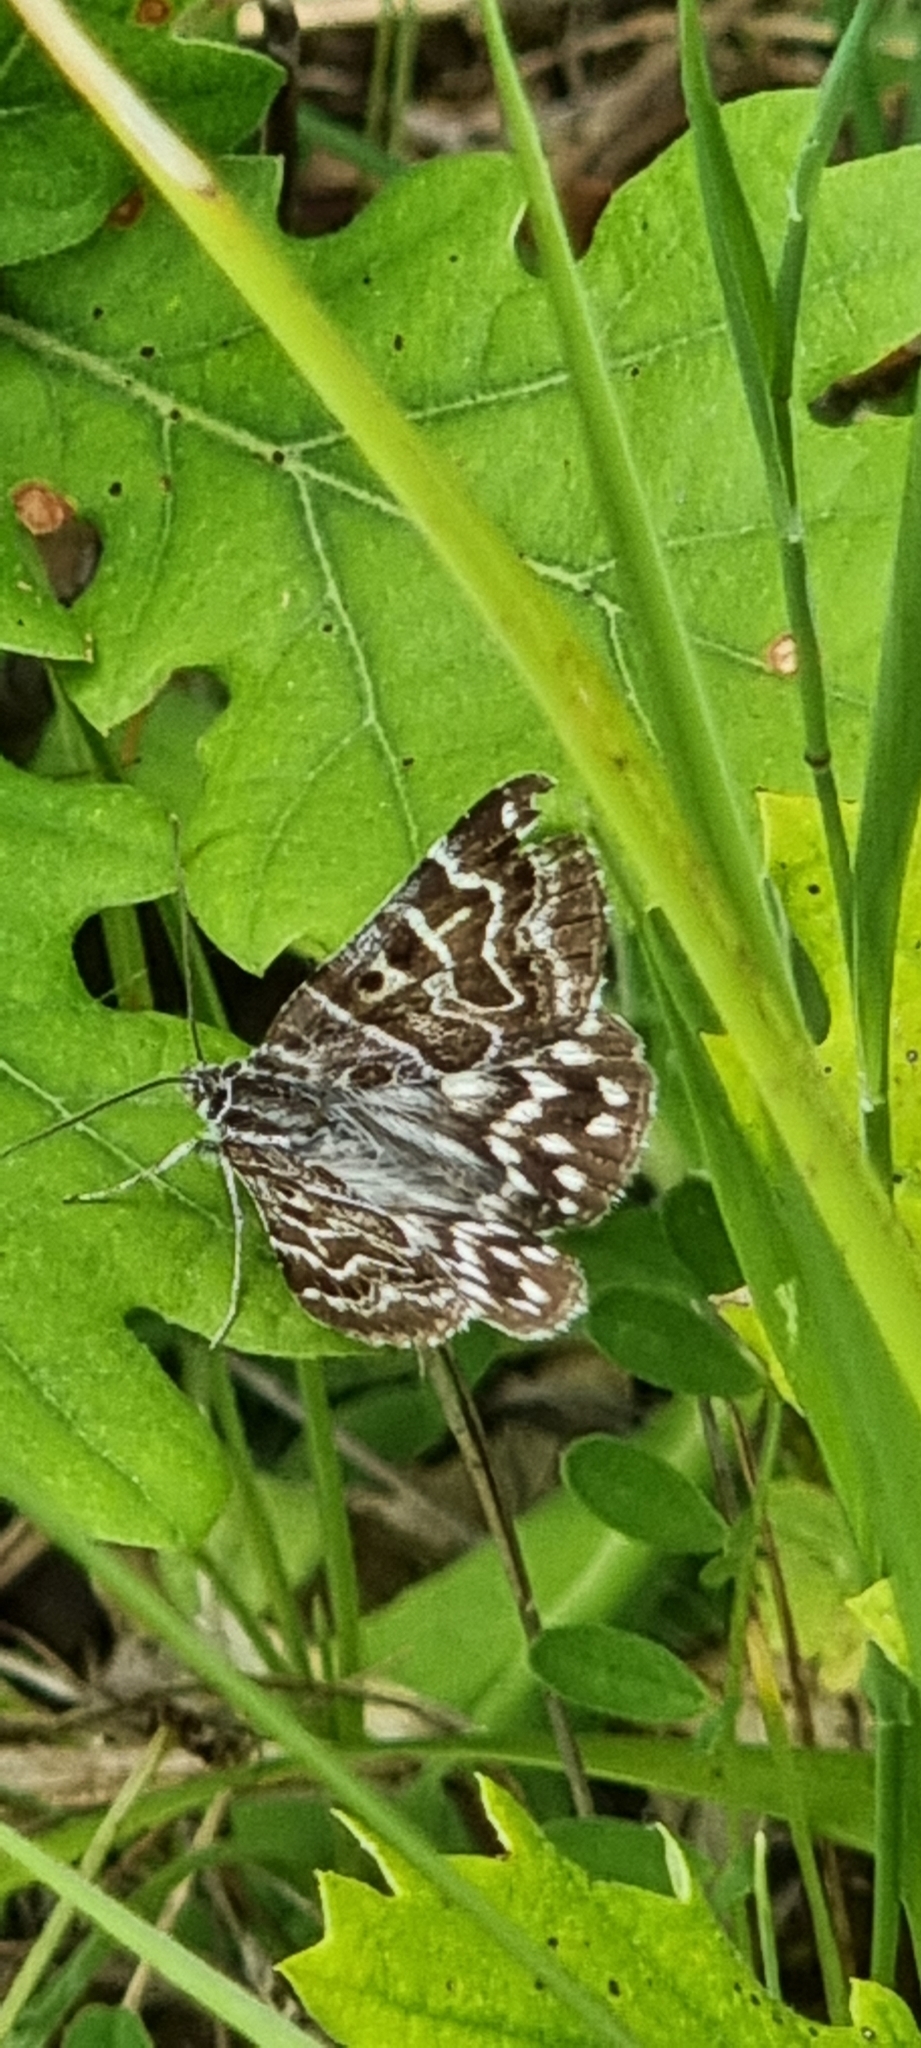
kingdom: Animalia
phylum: Arthropoda
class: Insecta
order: Lepidoptera
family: Erebidae
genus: Callistege
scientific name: Callistege mi
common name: Mother shipton
